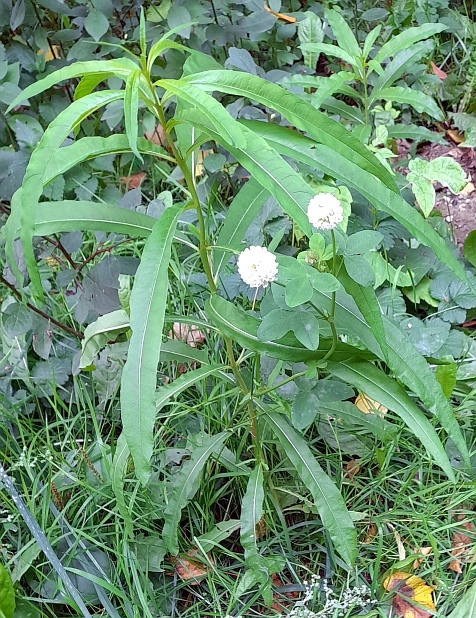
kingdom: Plantae
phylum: Tracheophyta
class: Magnoliopsida
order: Myrtales
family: Onagraceae
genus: Chamaenerion
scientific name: Chamaenerion angustifolium
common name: Fireweed
